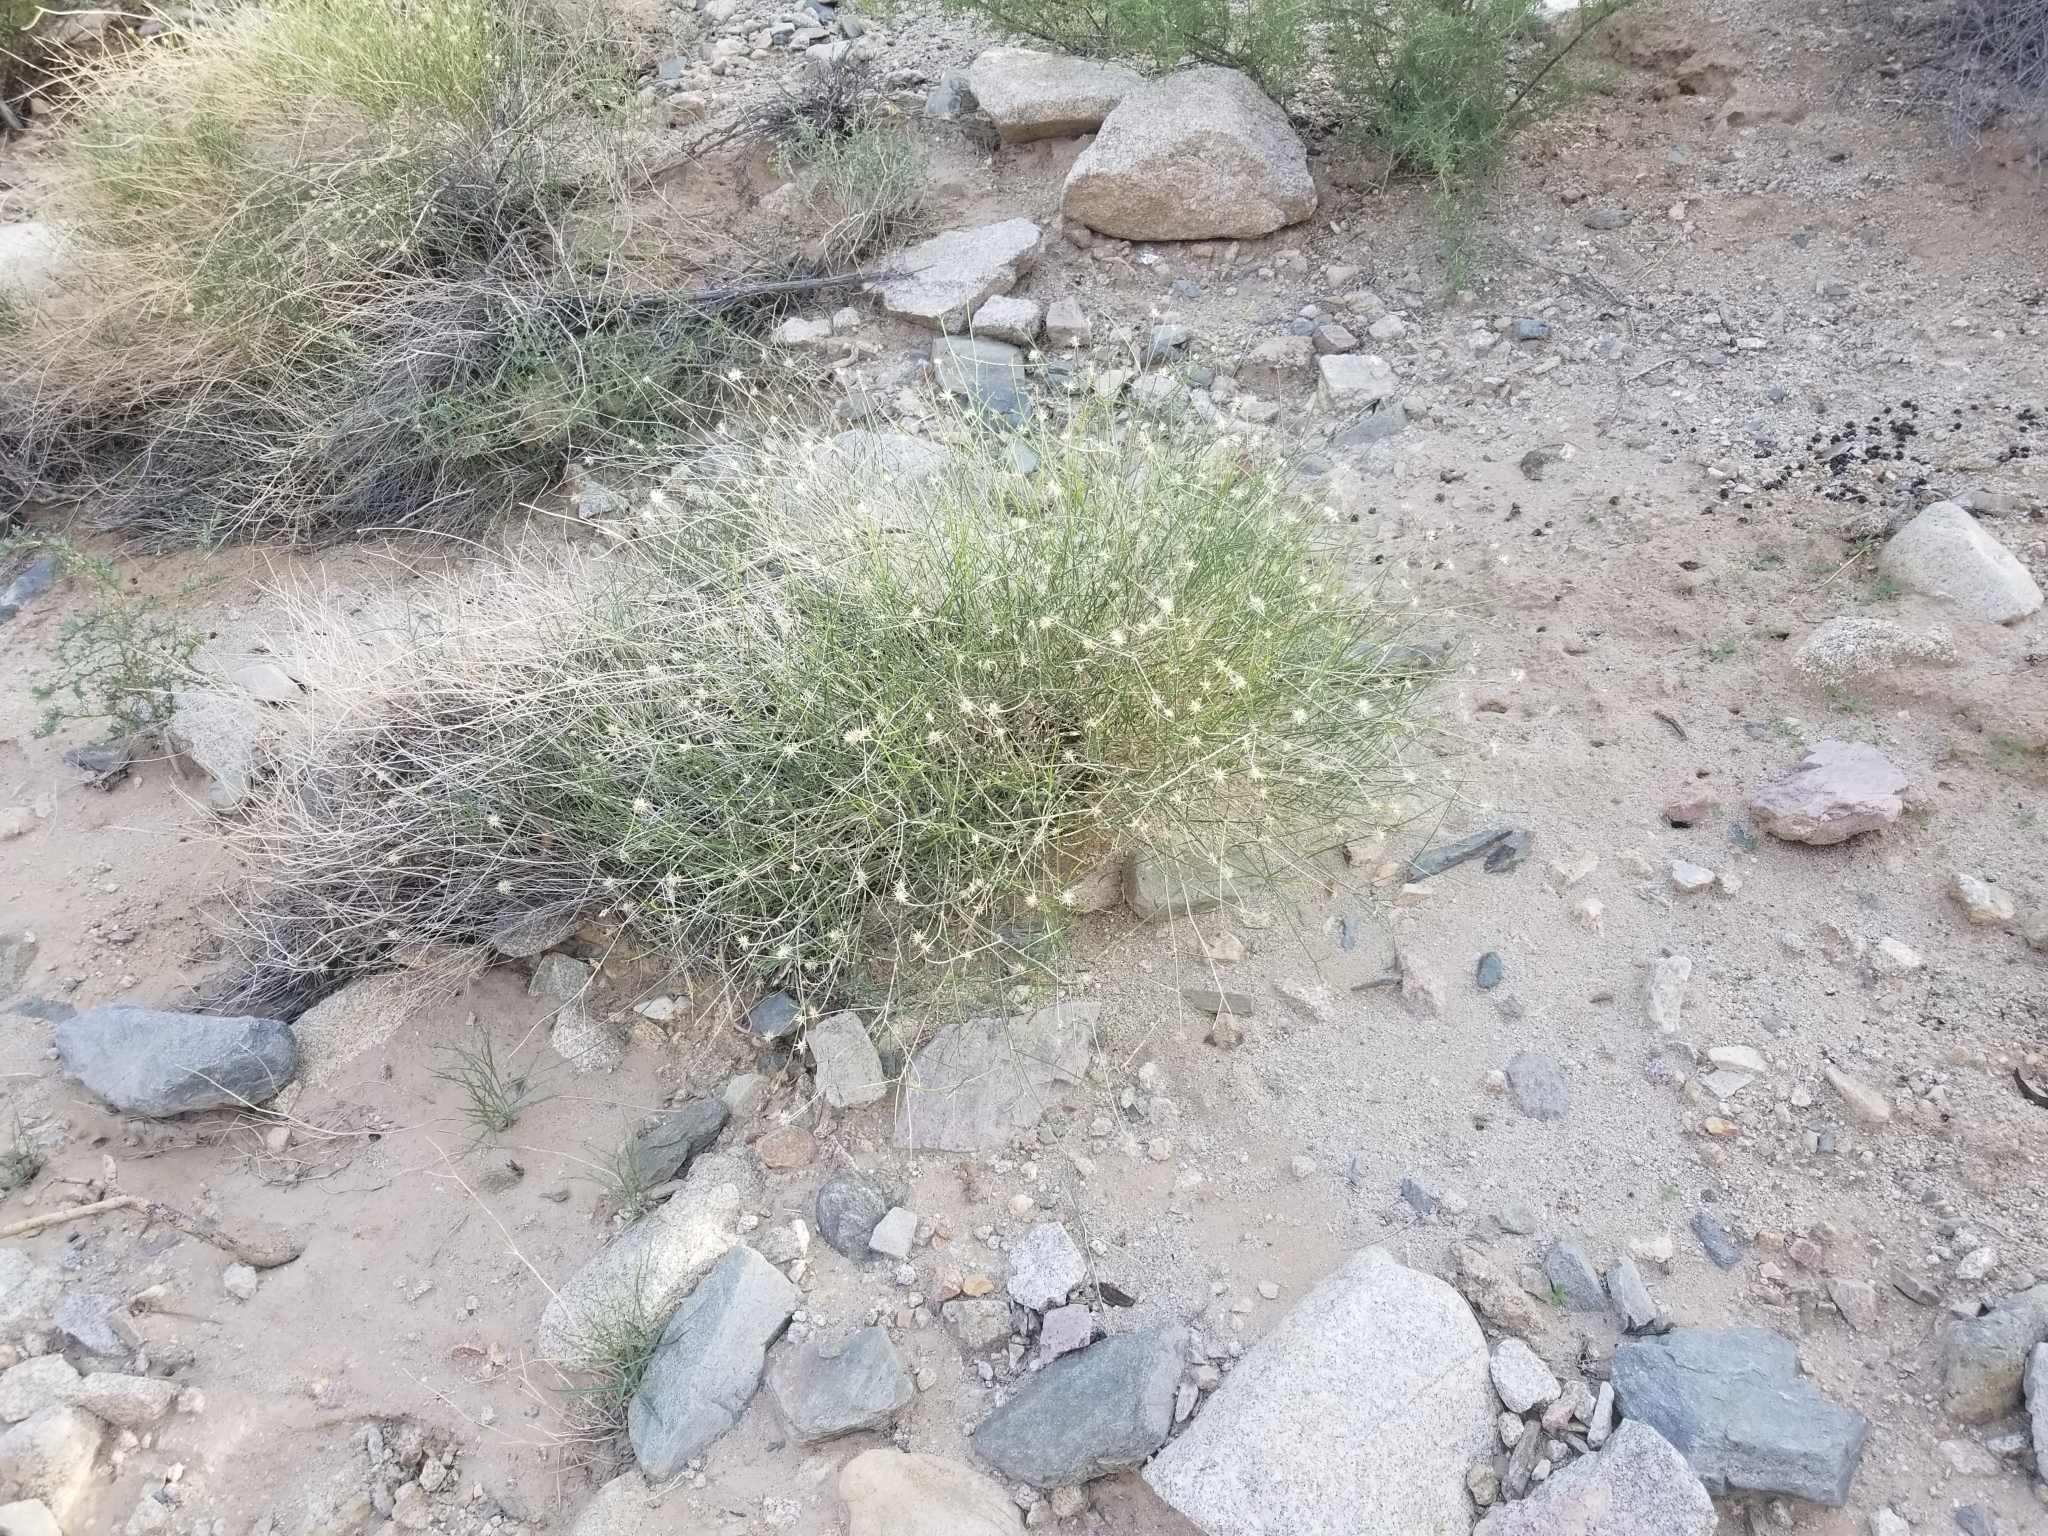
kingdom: Plantae
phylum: Tracheophyta
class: Magnoliopsida
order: Asterales
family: Asteraceae
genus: Bebbia
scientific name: Bebbia juncea
